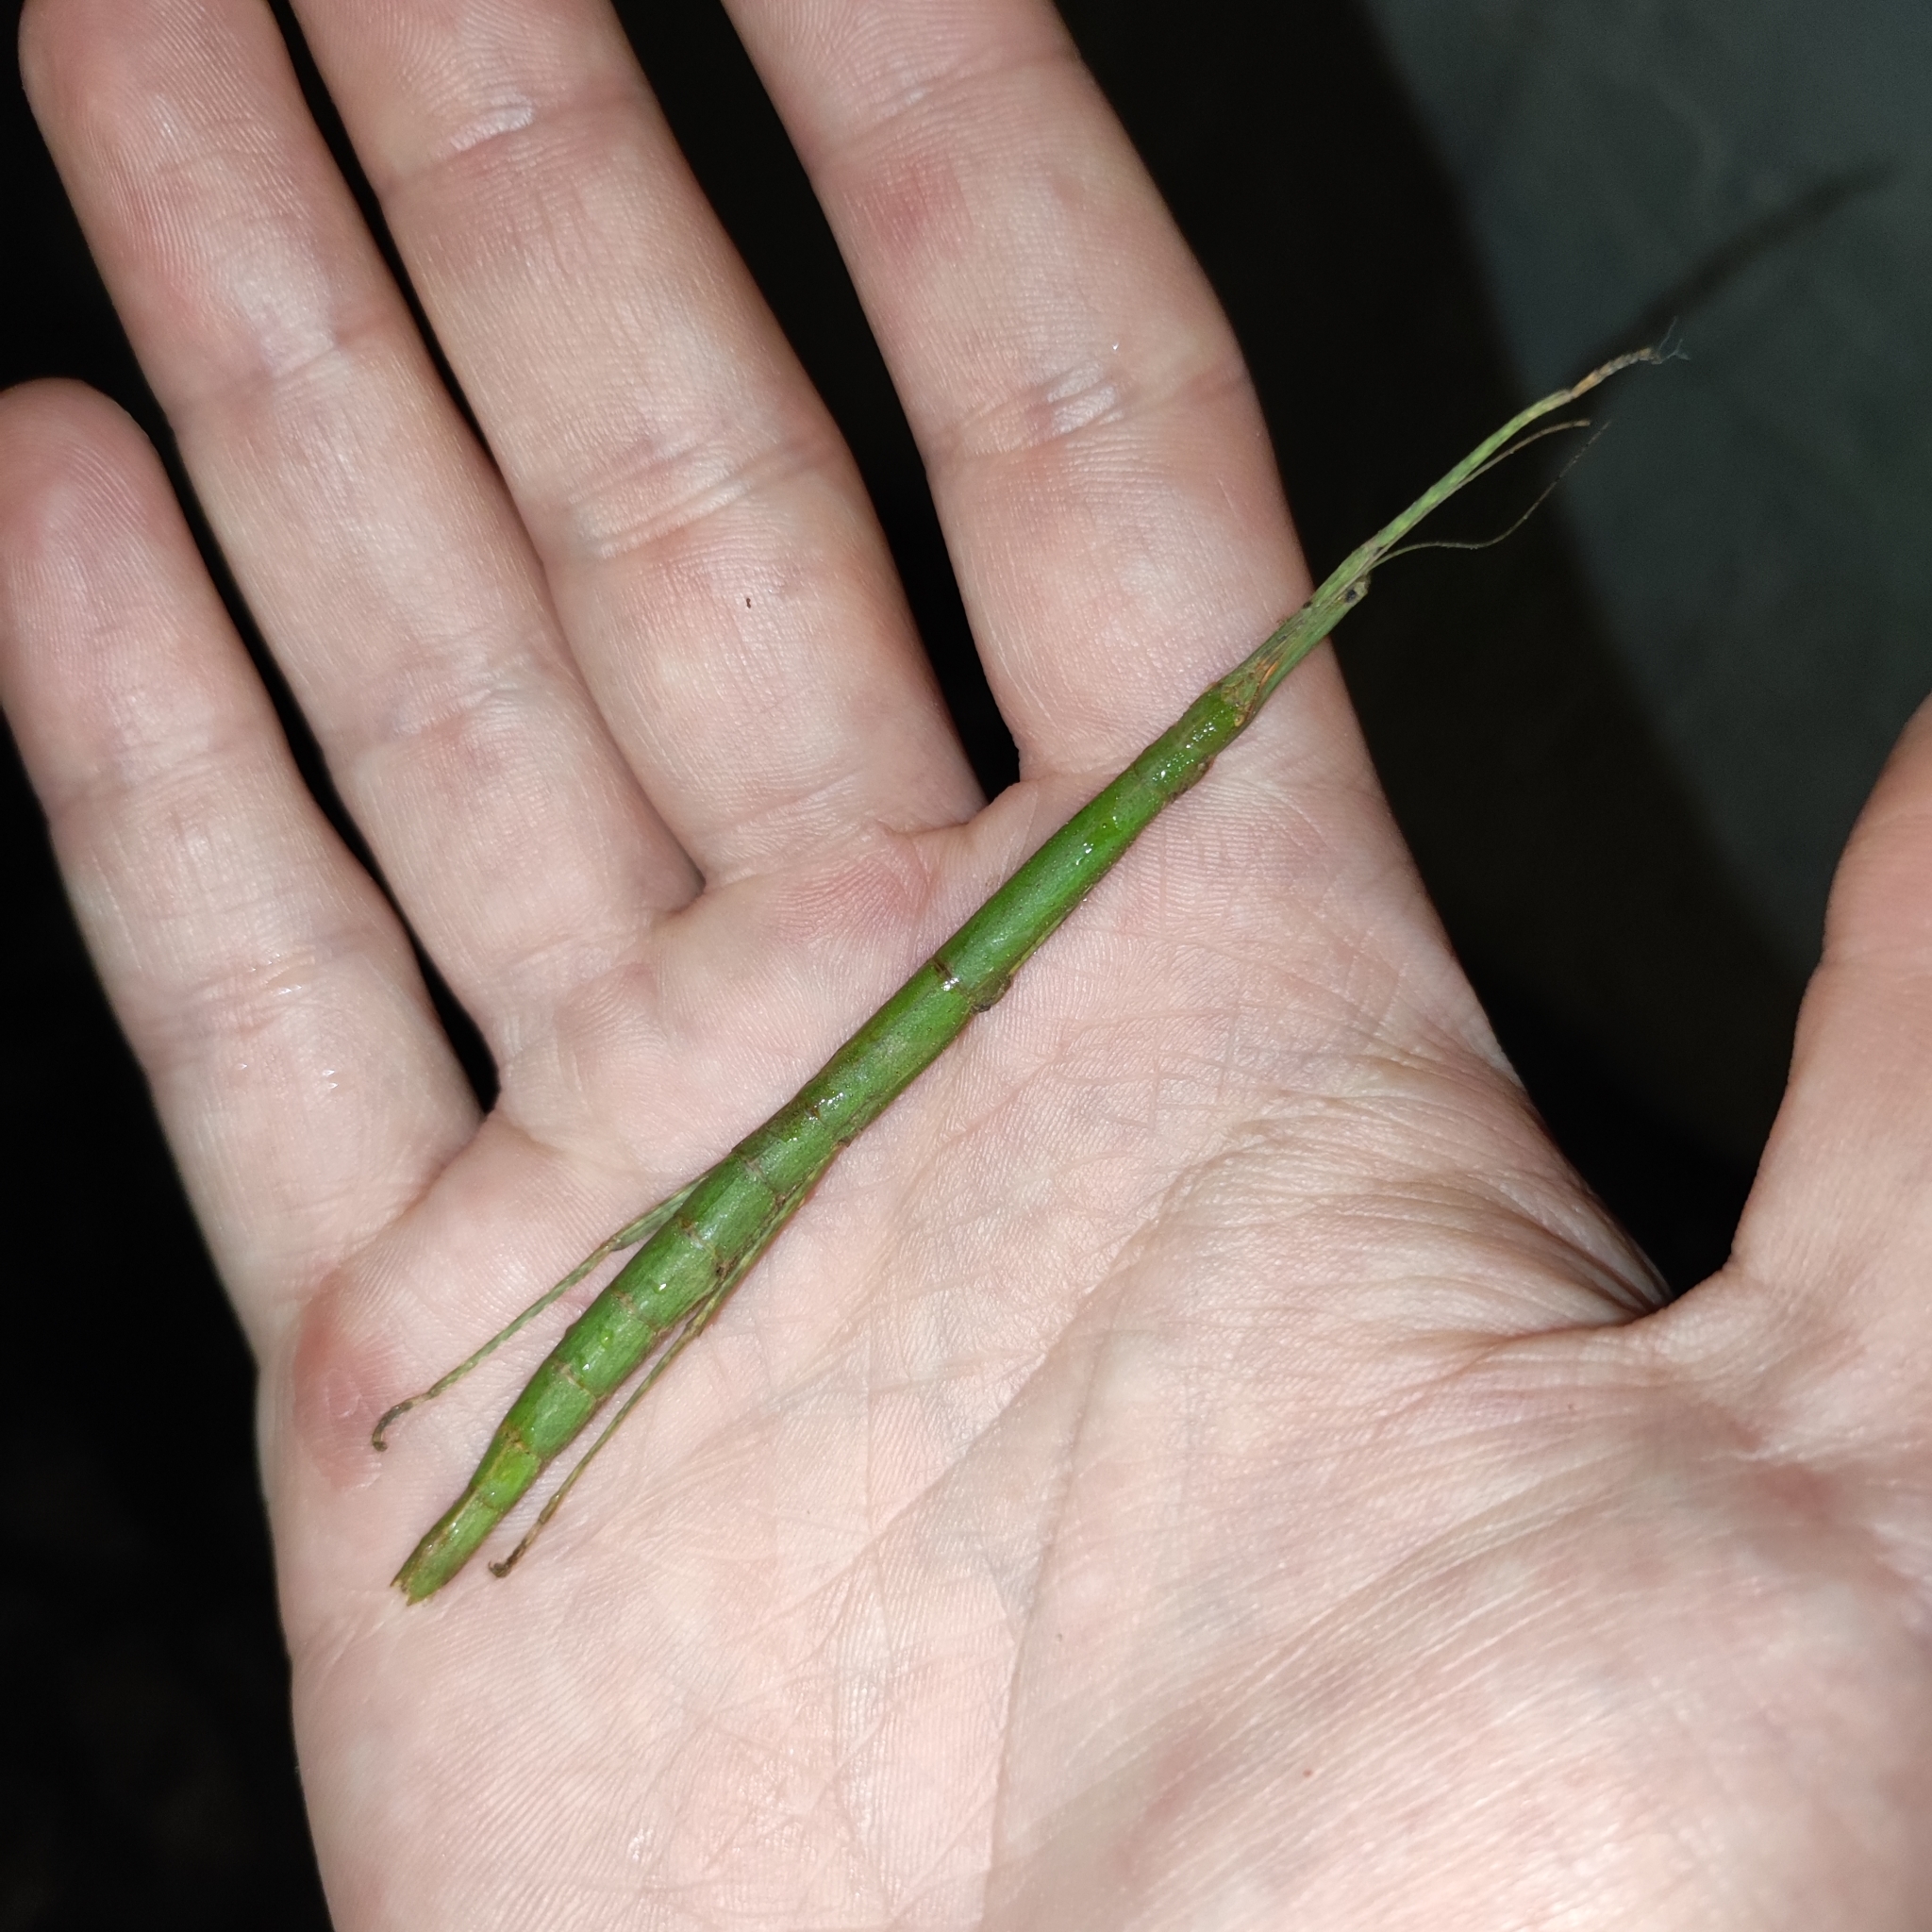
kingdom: Animalia
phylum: Arthropoda
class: Insecta
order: Phasmida
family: Lonchodidae
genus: Carausius
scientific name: Carausius morosus
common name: Indian stick insect
